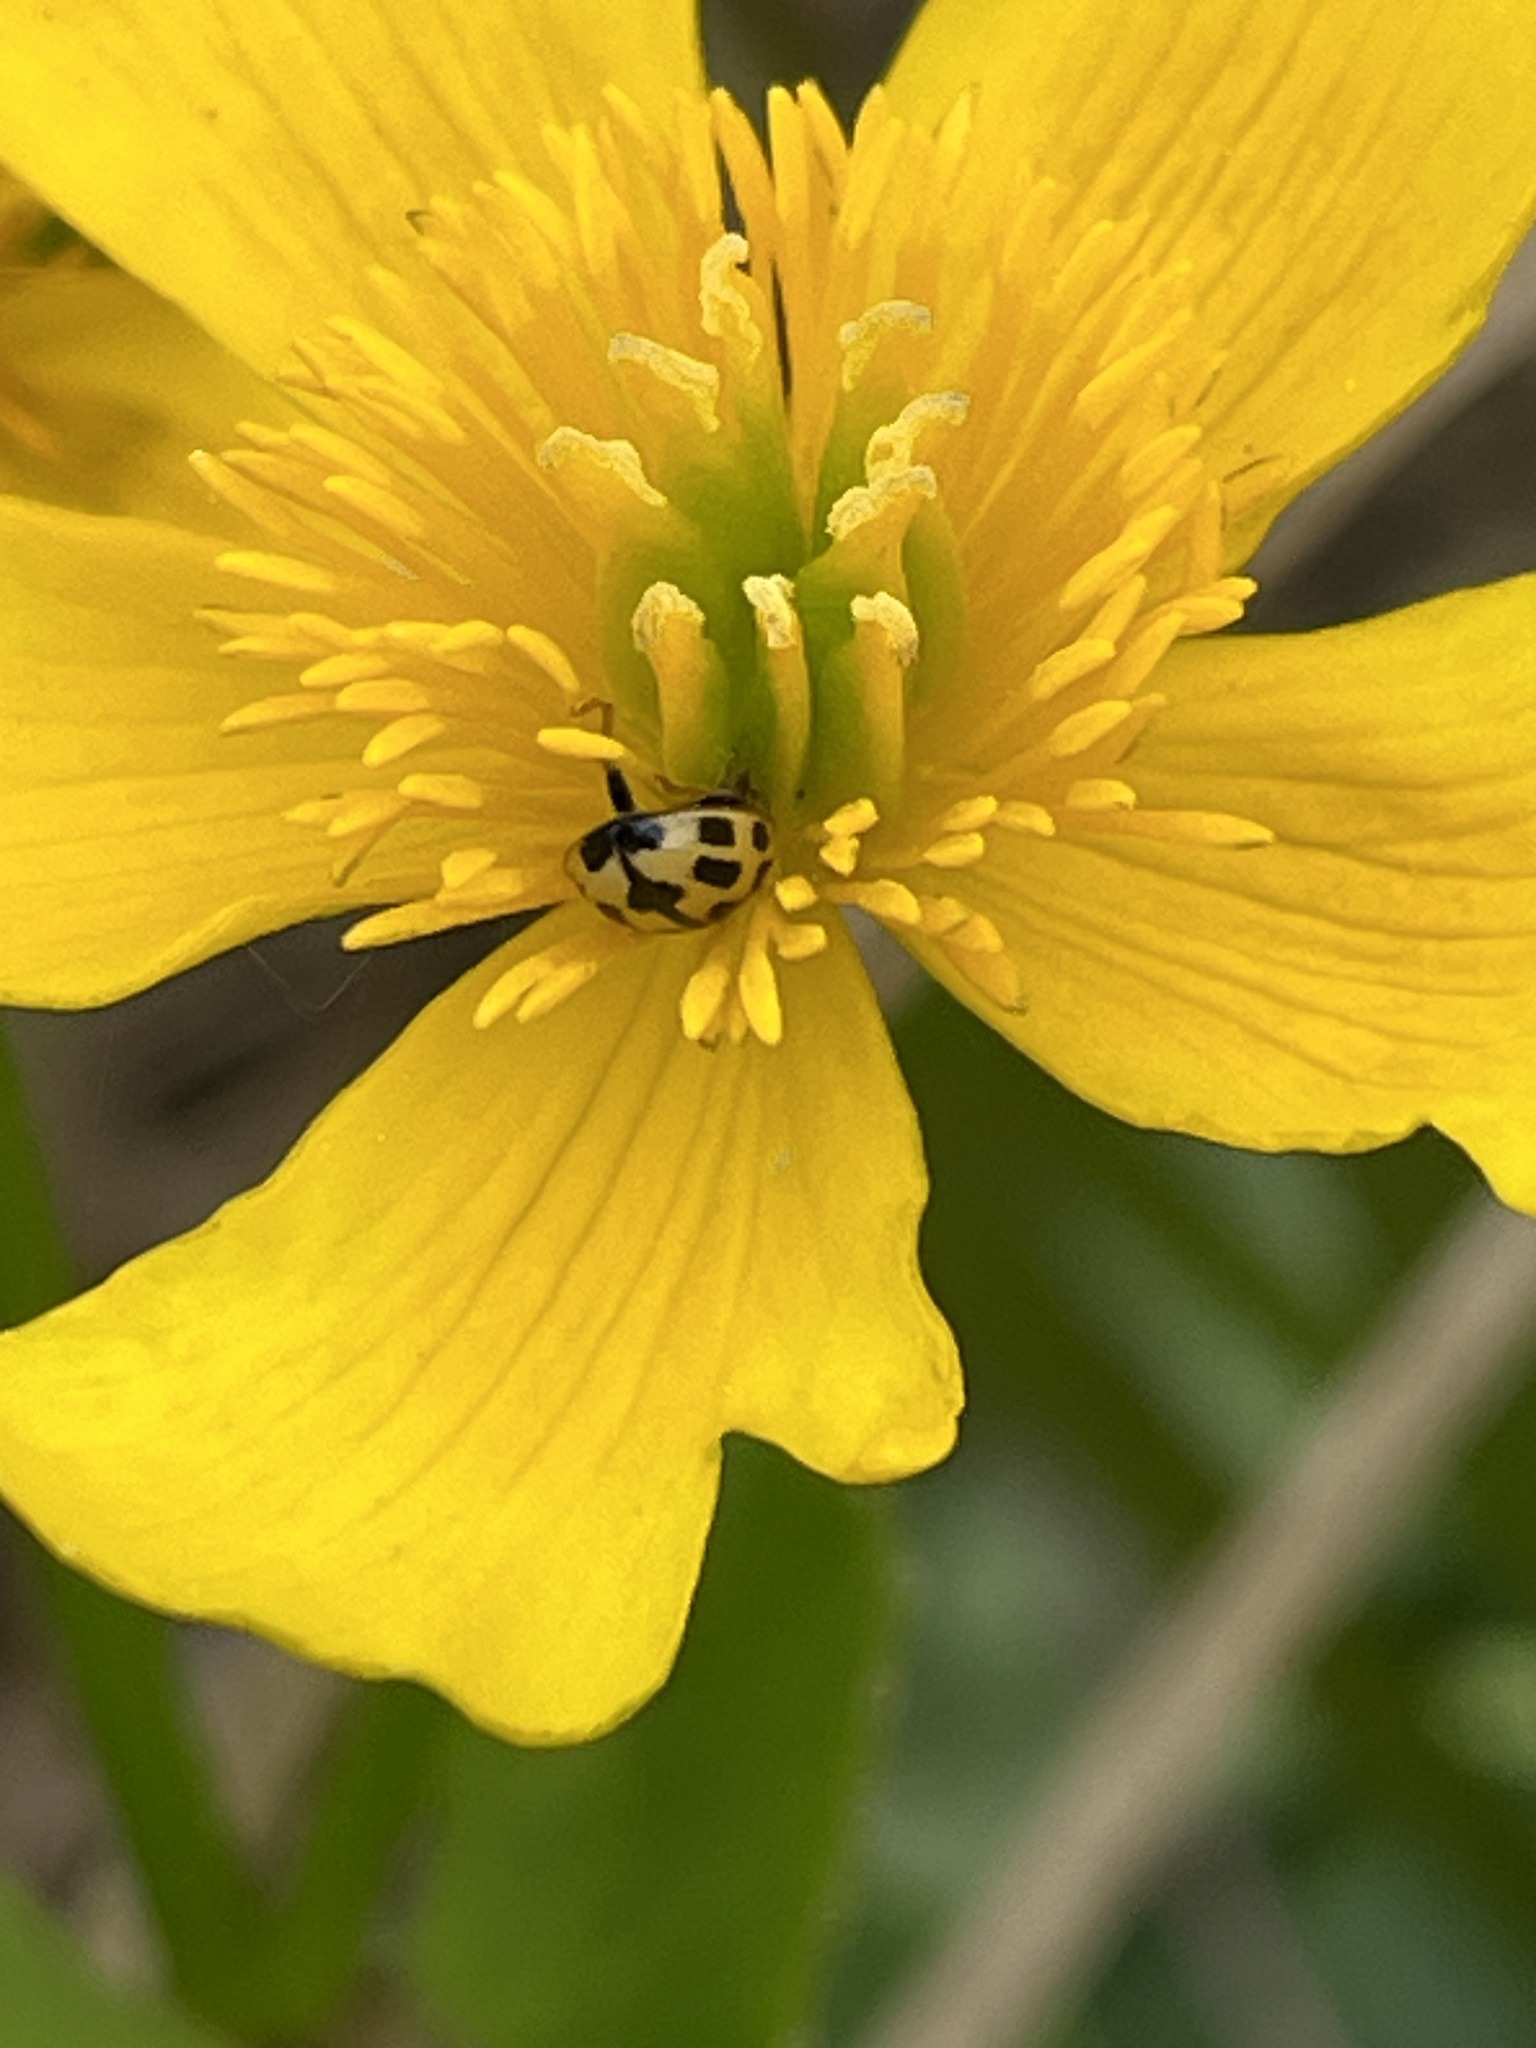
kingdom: Animalia
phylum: Arthropoda
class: Insecta
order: Coleoptera
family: Coccinellidae
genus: Propylaea
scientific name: Propylaea quatuordecimpunctata
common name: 14-spotted ladybird beetle
